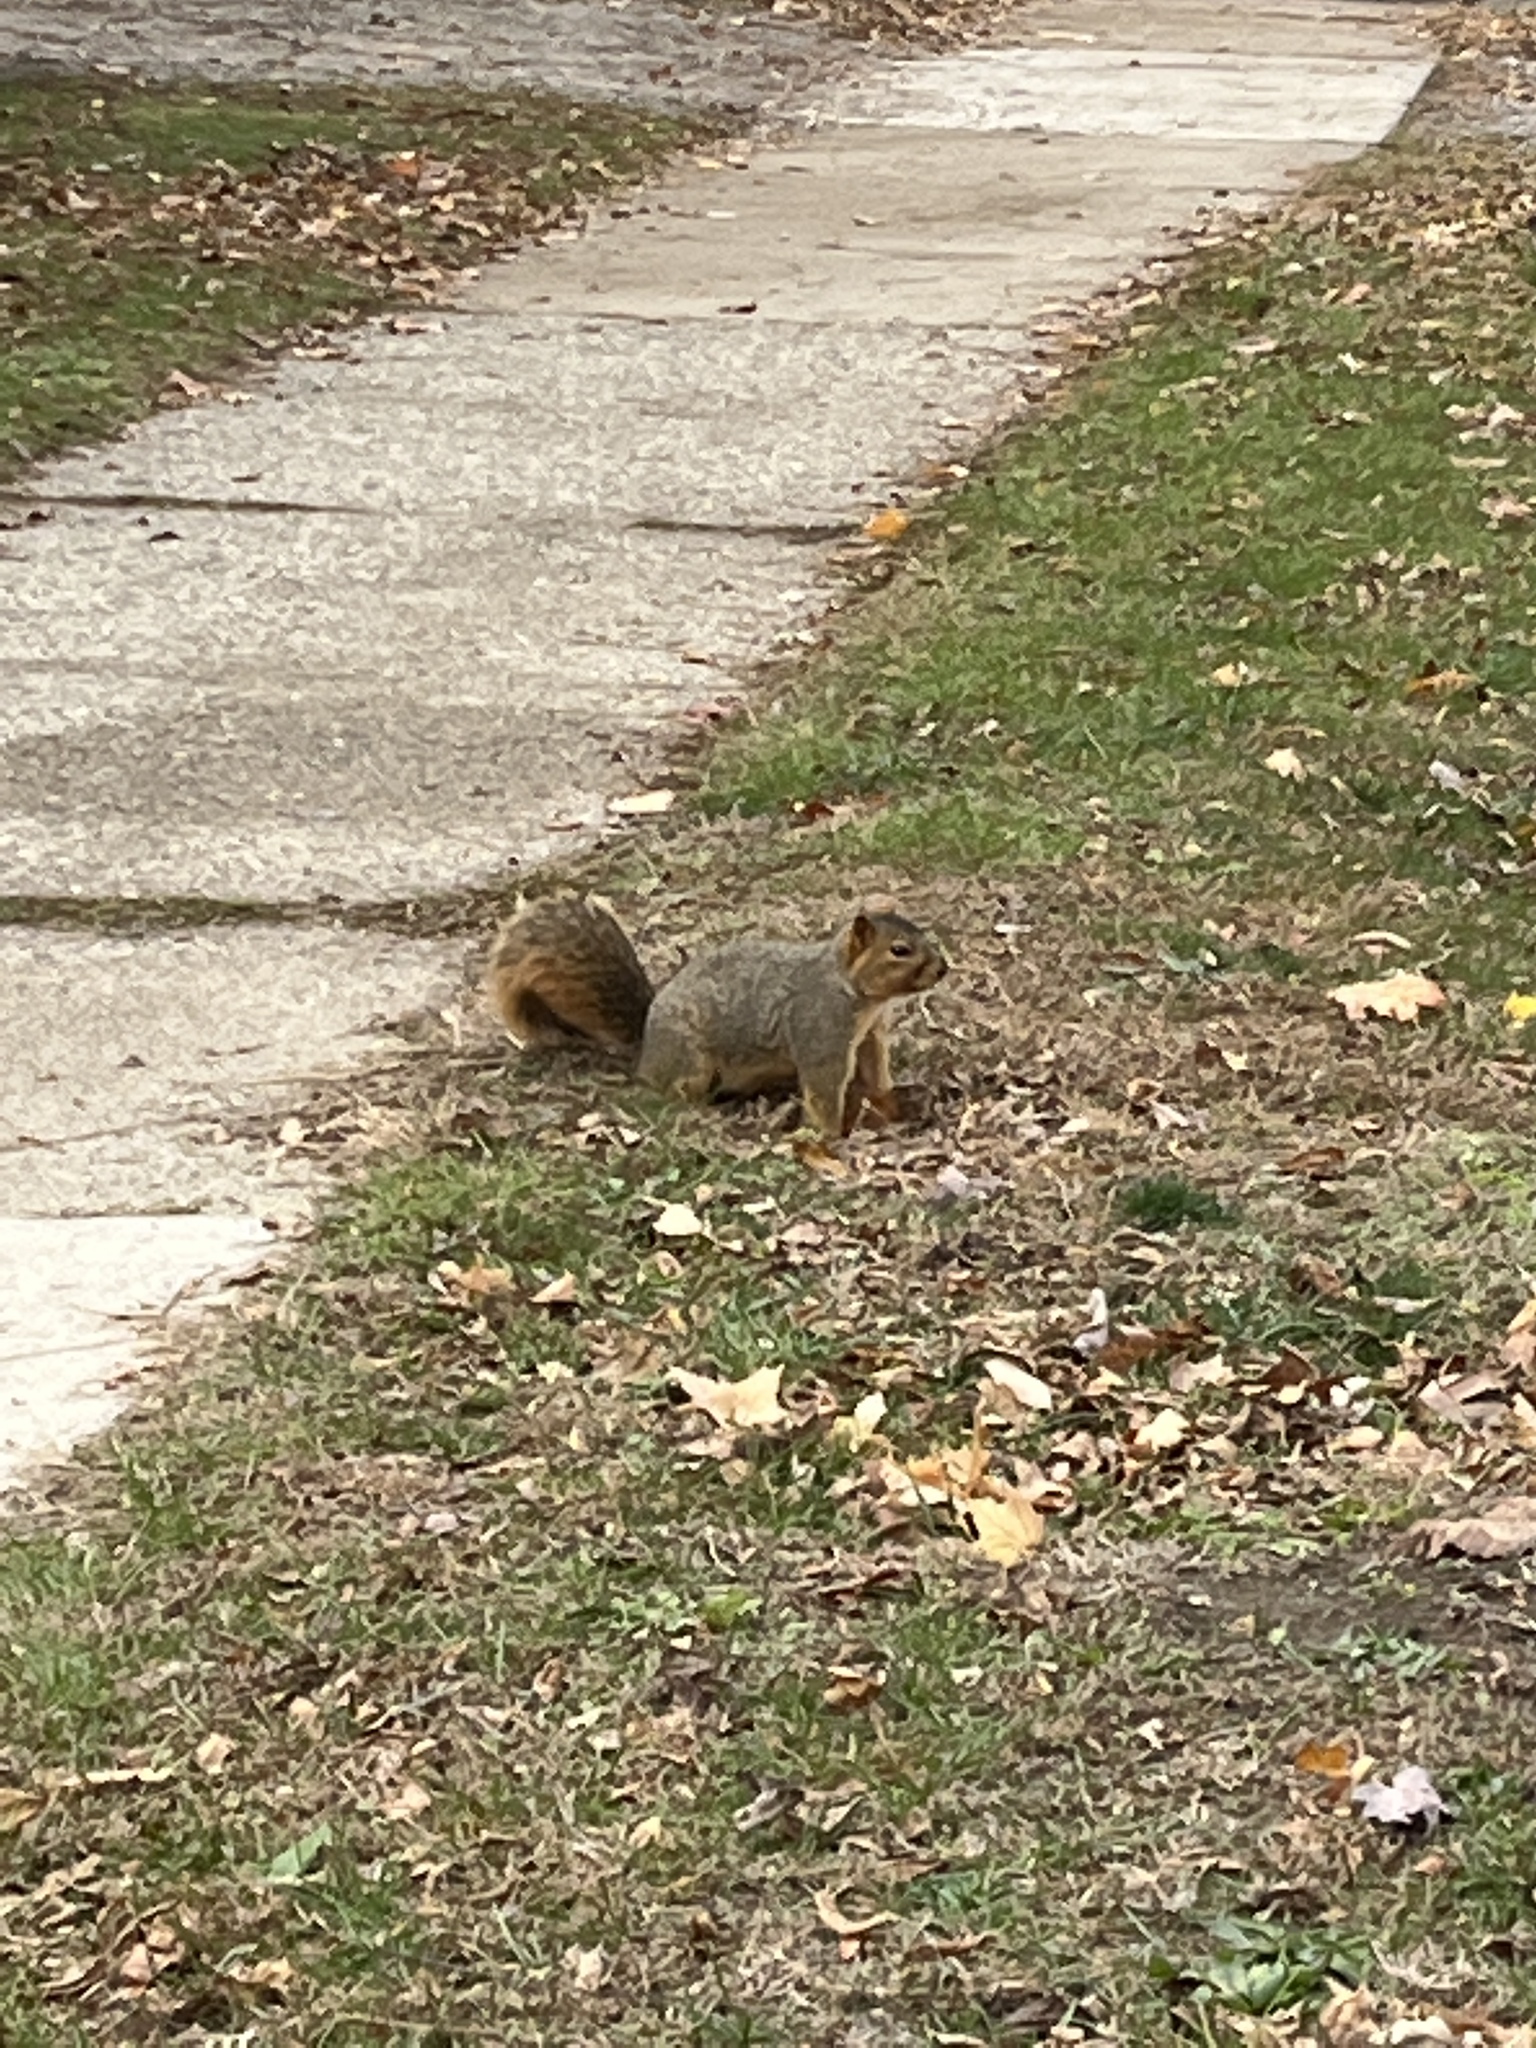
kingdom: Animalia
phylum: Chordata
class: Mammalia
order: Rodentia
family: Sciuridae
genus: Sciurus
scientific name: Sciurus niger
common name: Fox squirrel
